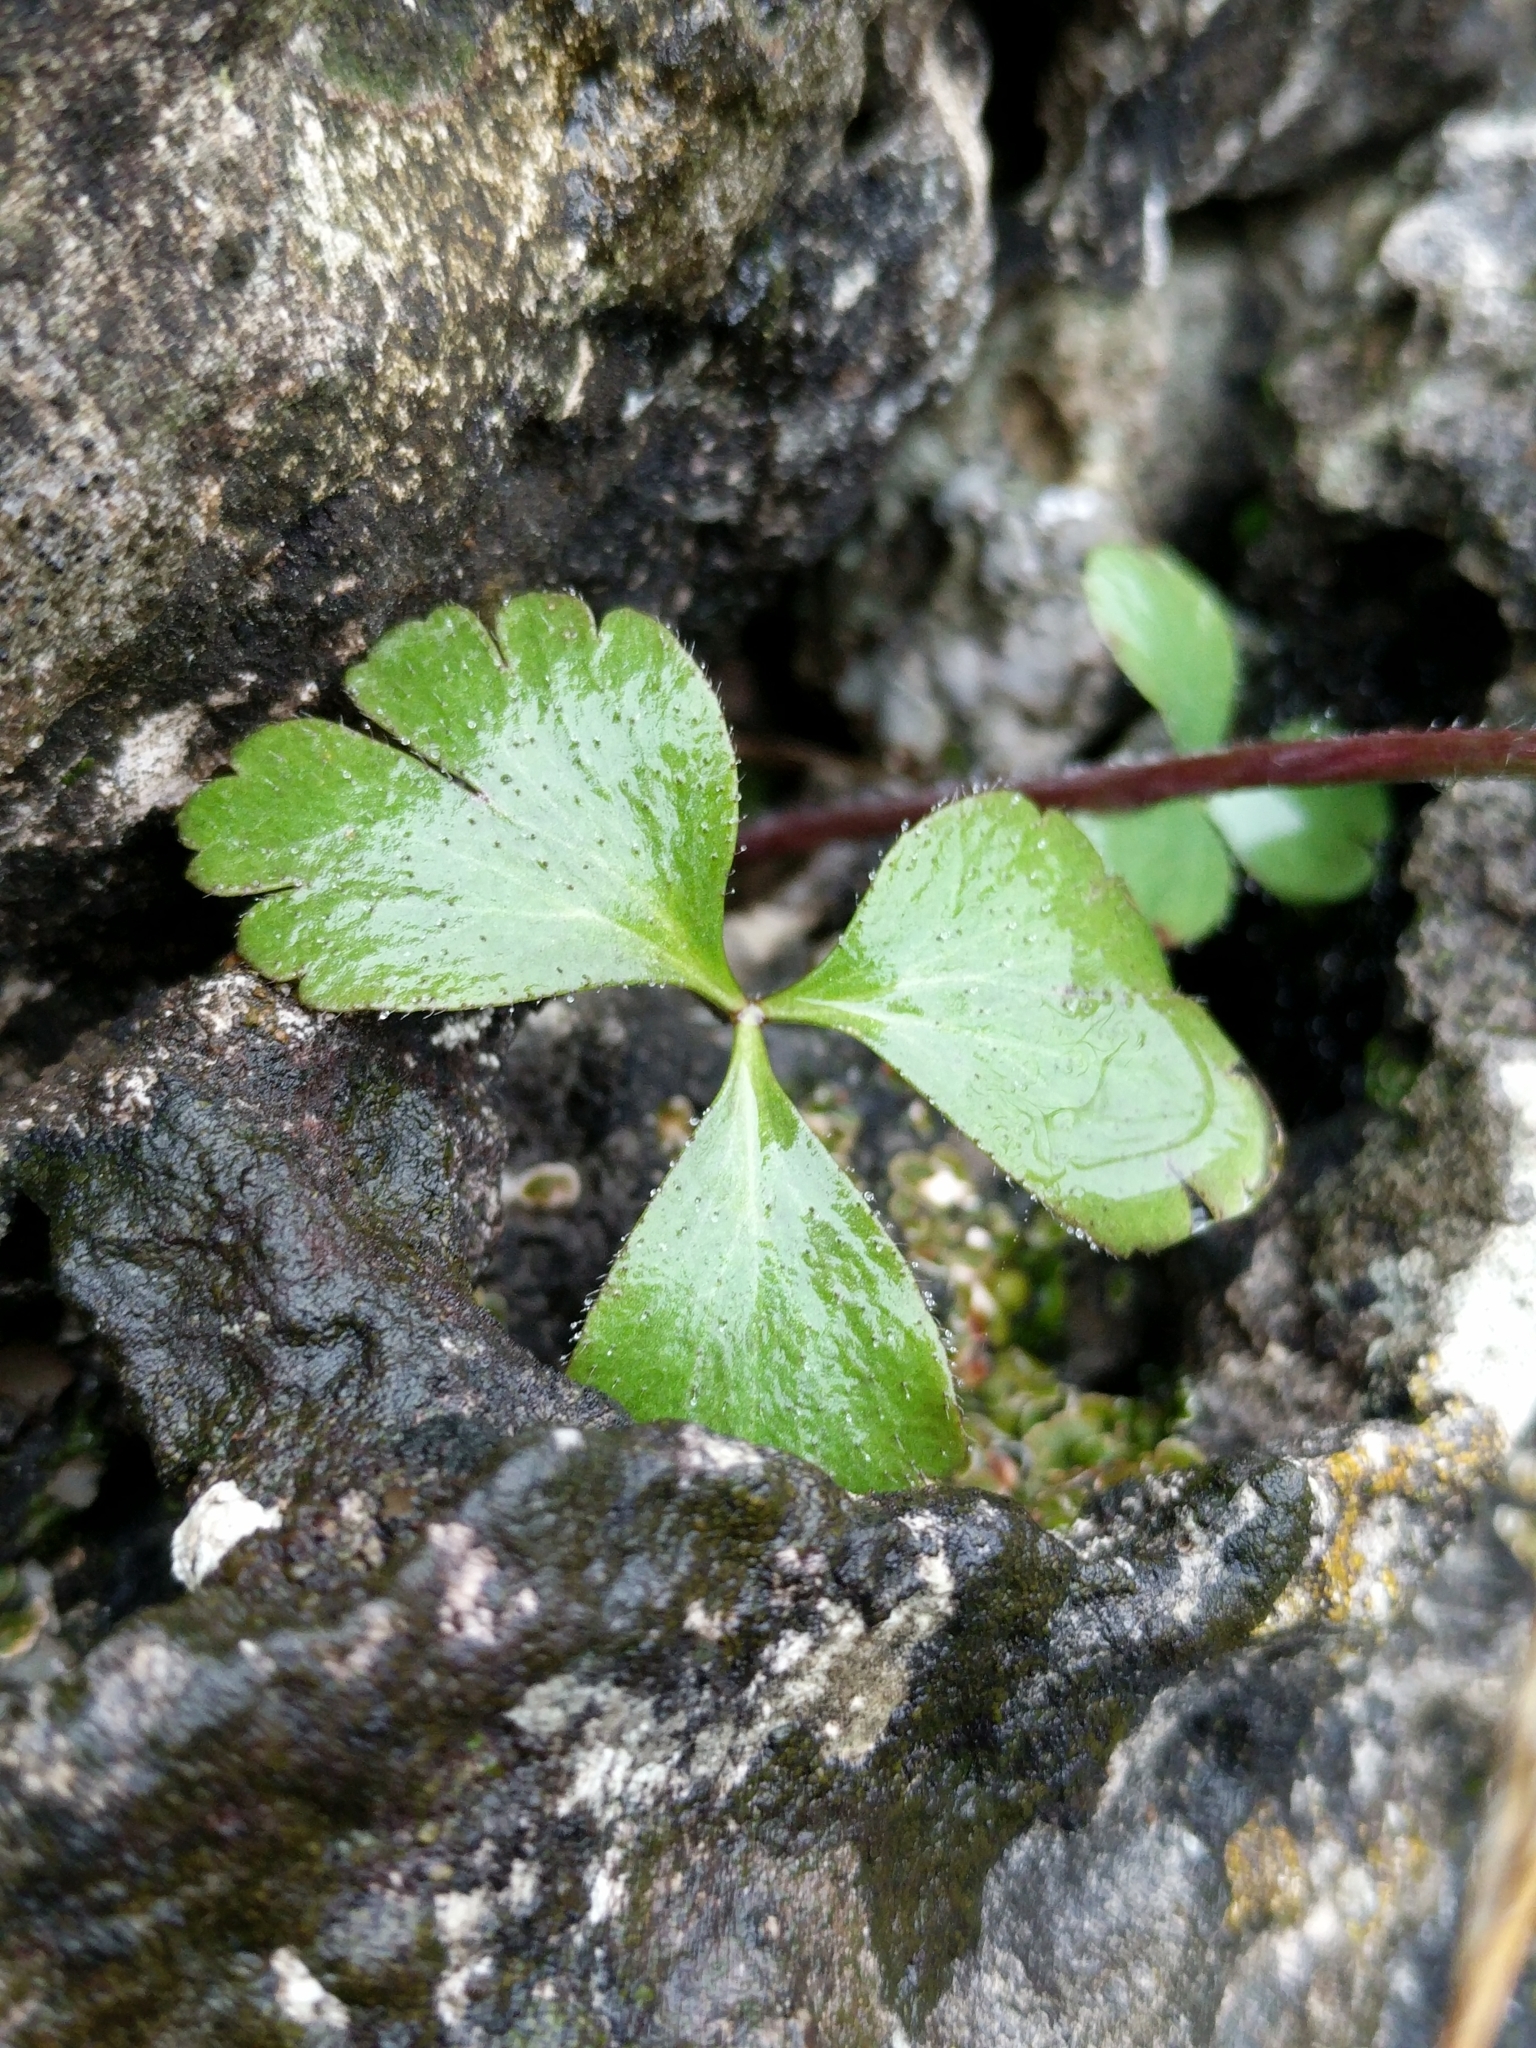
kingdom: Plantae
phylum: Tracheophyta
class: Magnoliopsida
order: Ranunculales
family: Ranunculaceae
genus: Anemone
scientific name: Anemone berlandieri
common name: Ten-petal anemone
